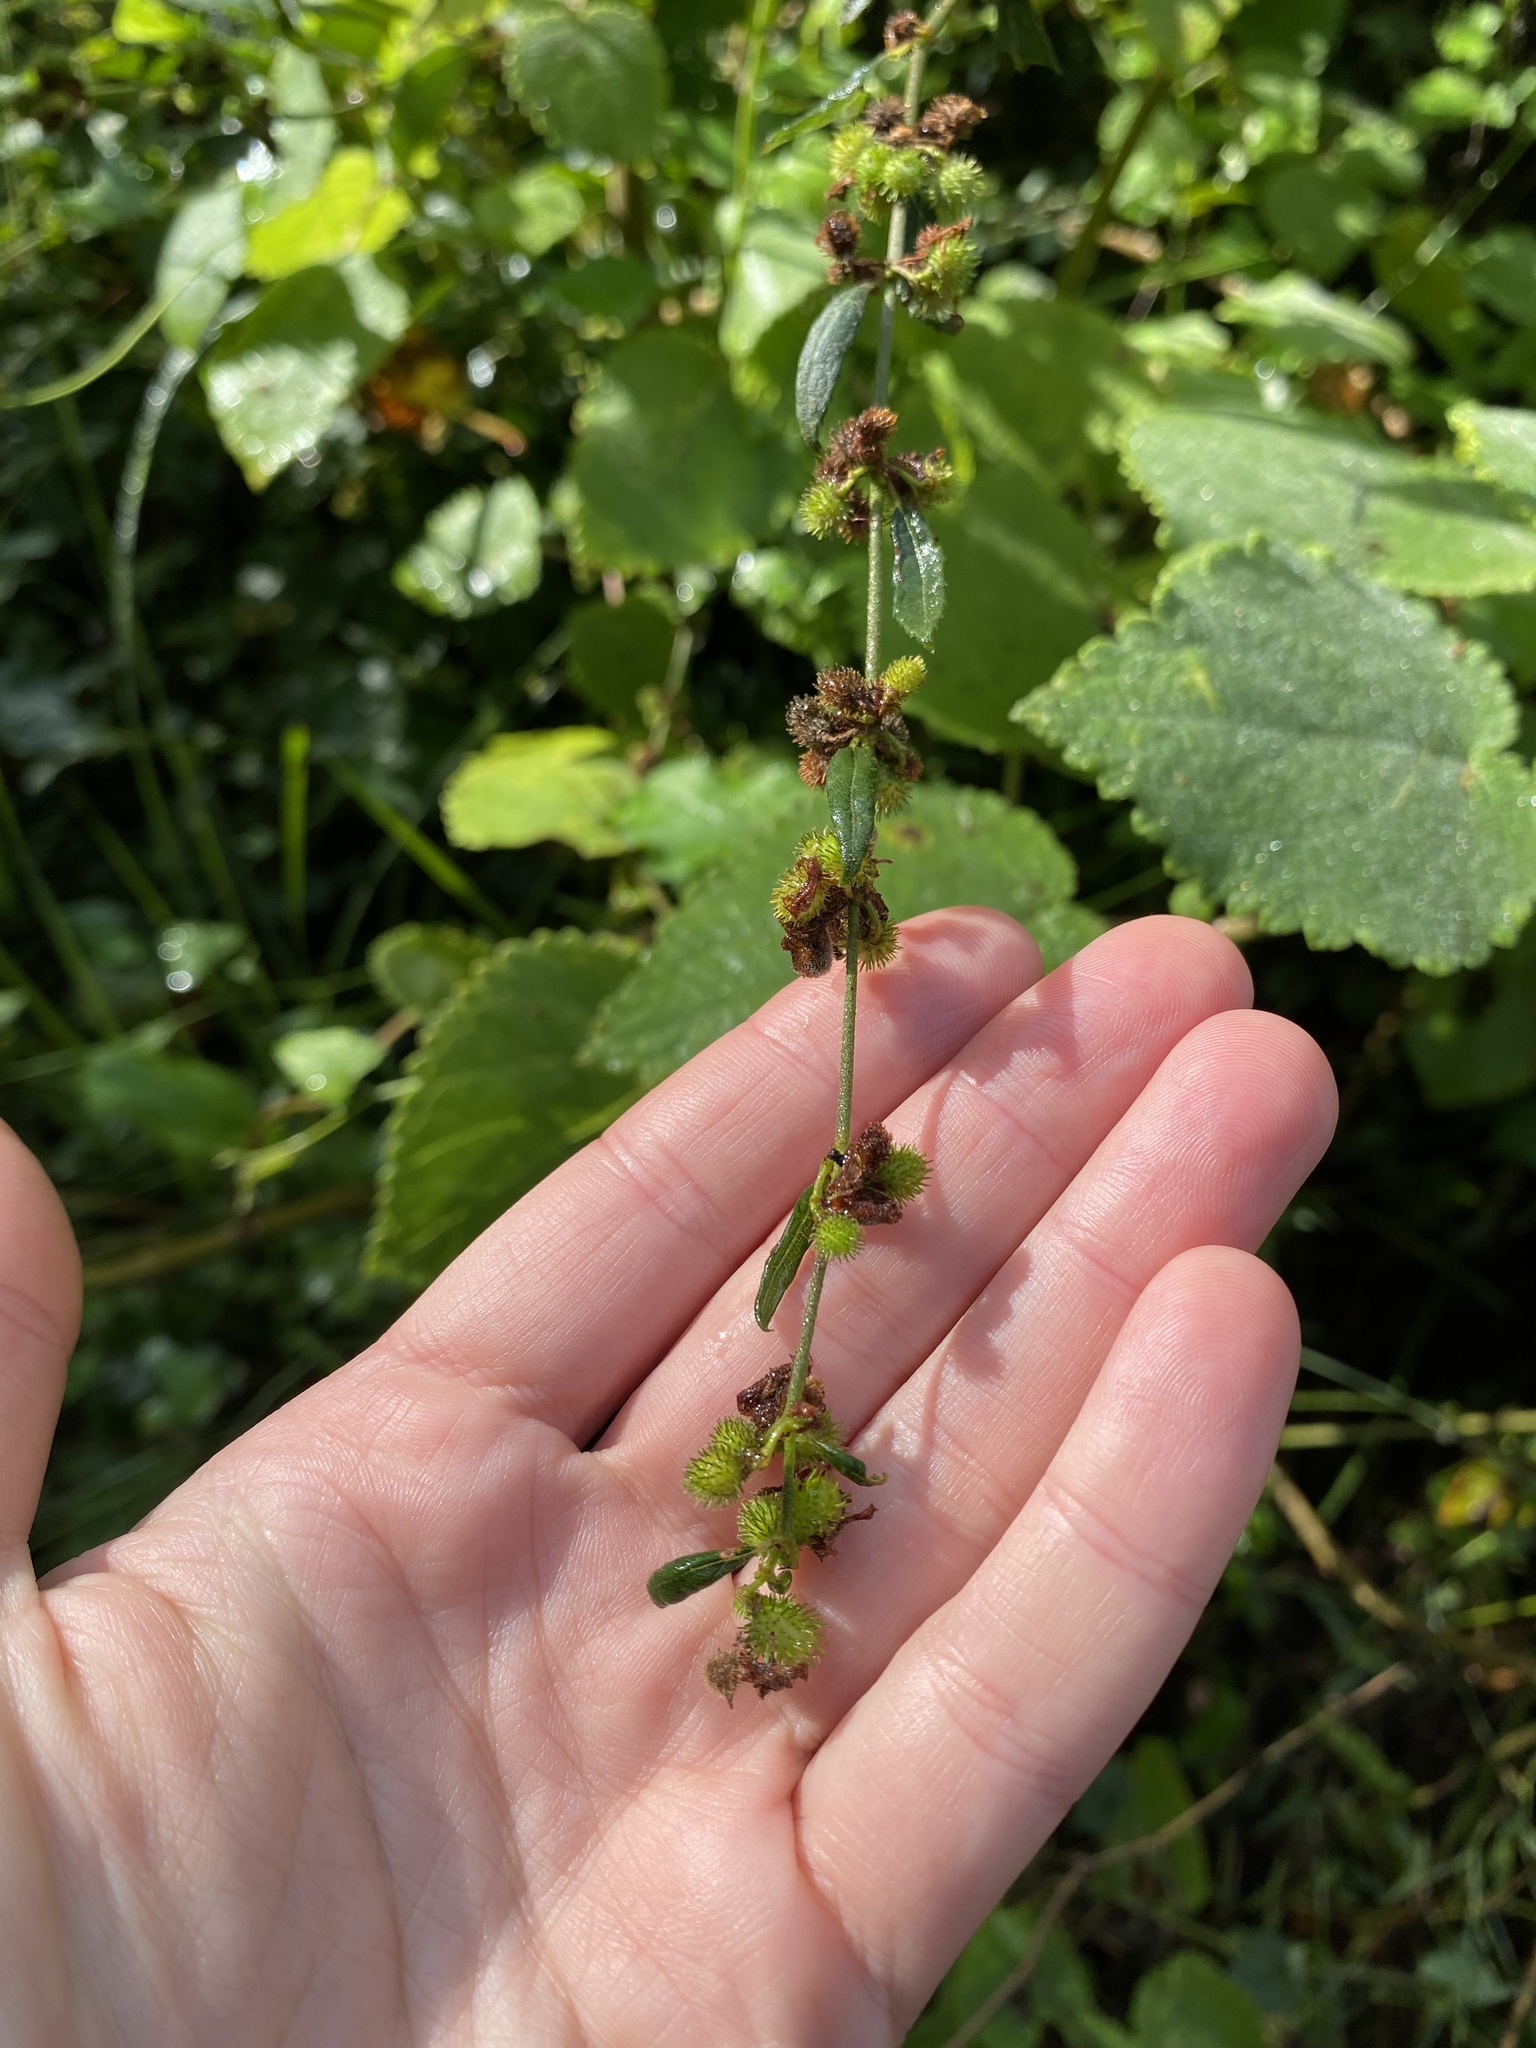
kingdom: Plantae
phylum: Tracheophyta
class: Magnoliopsida
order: Caryophyllales
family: Amaranthaceae
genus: Pupalia
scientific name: Pupalia lappacea
